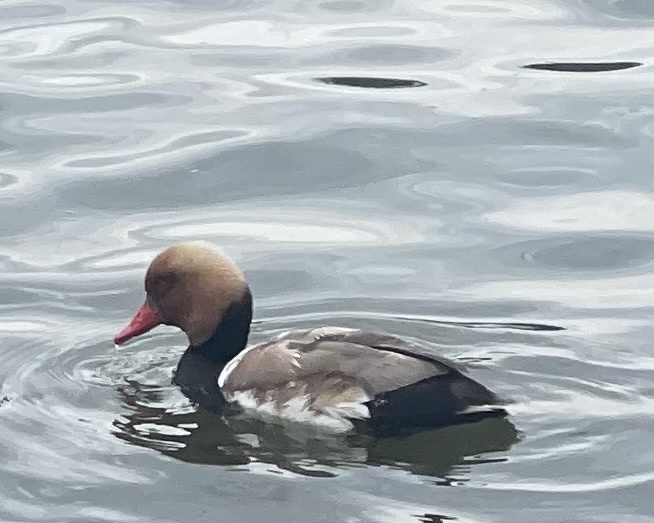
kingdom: Animalia
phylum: Chordata
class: Aves
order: Anseriformes
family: Anatidae
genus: Netta
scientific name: Netta rufina
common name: Red-crested pochard
